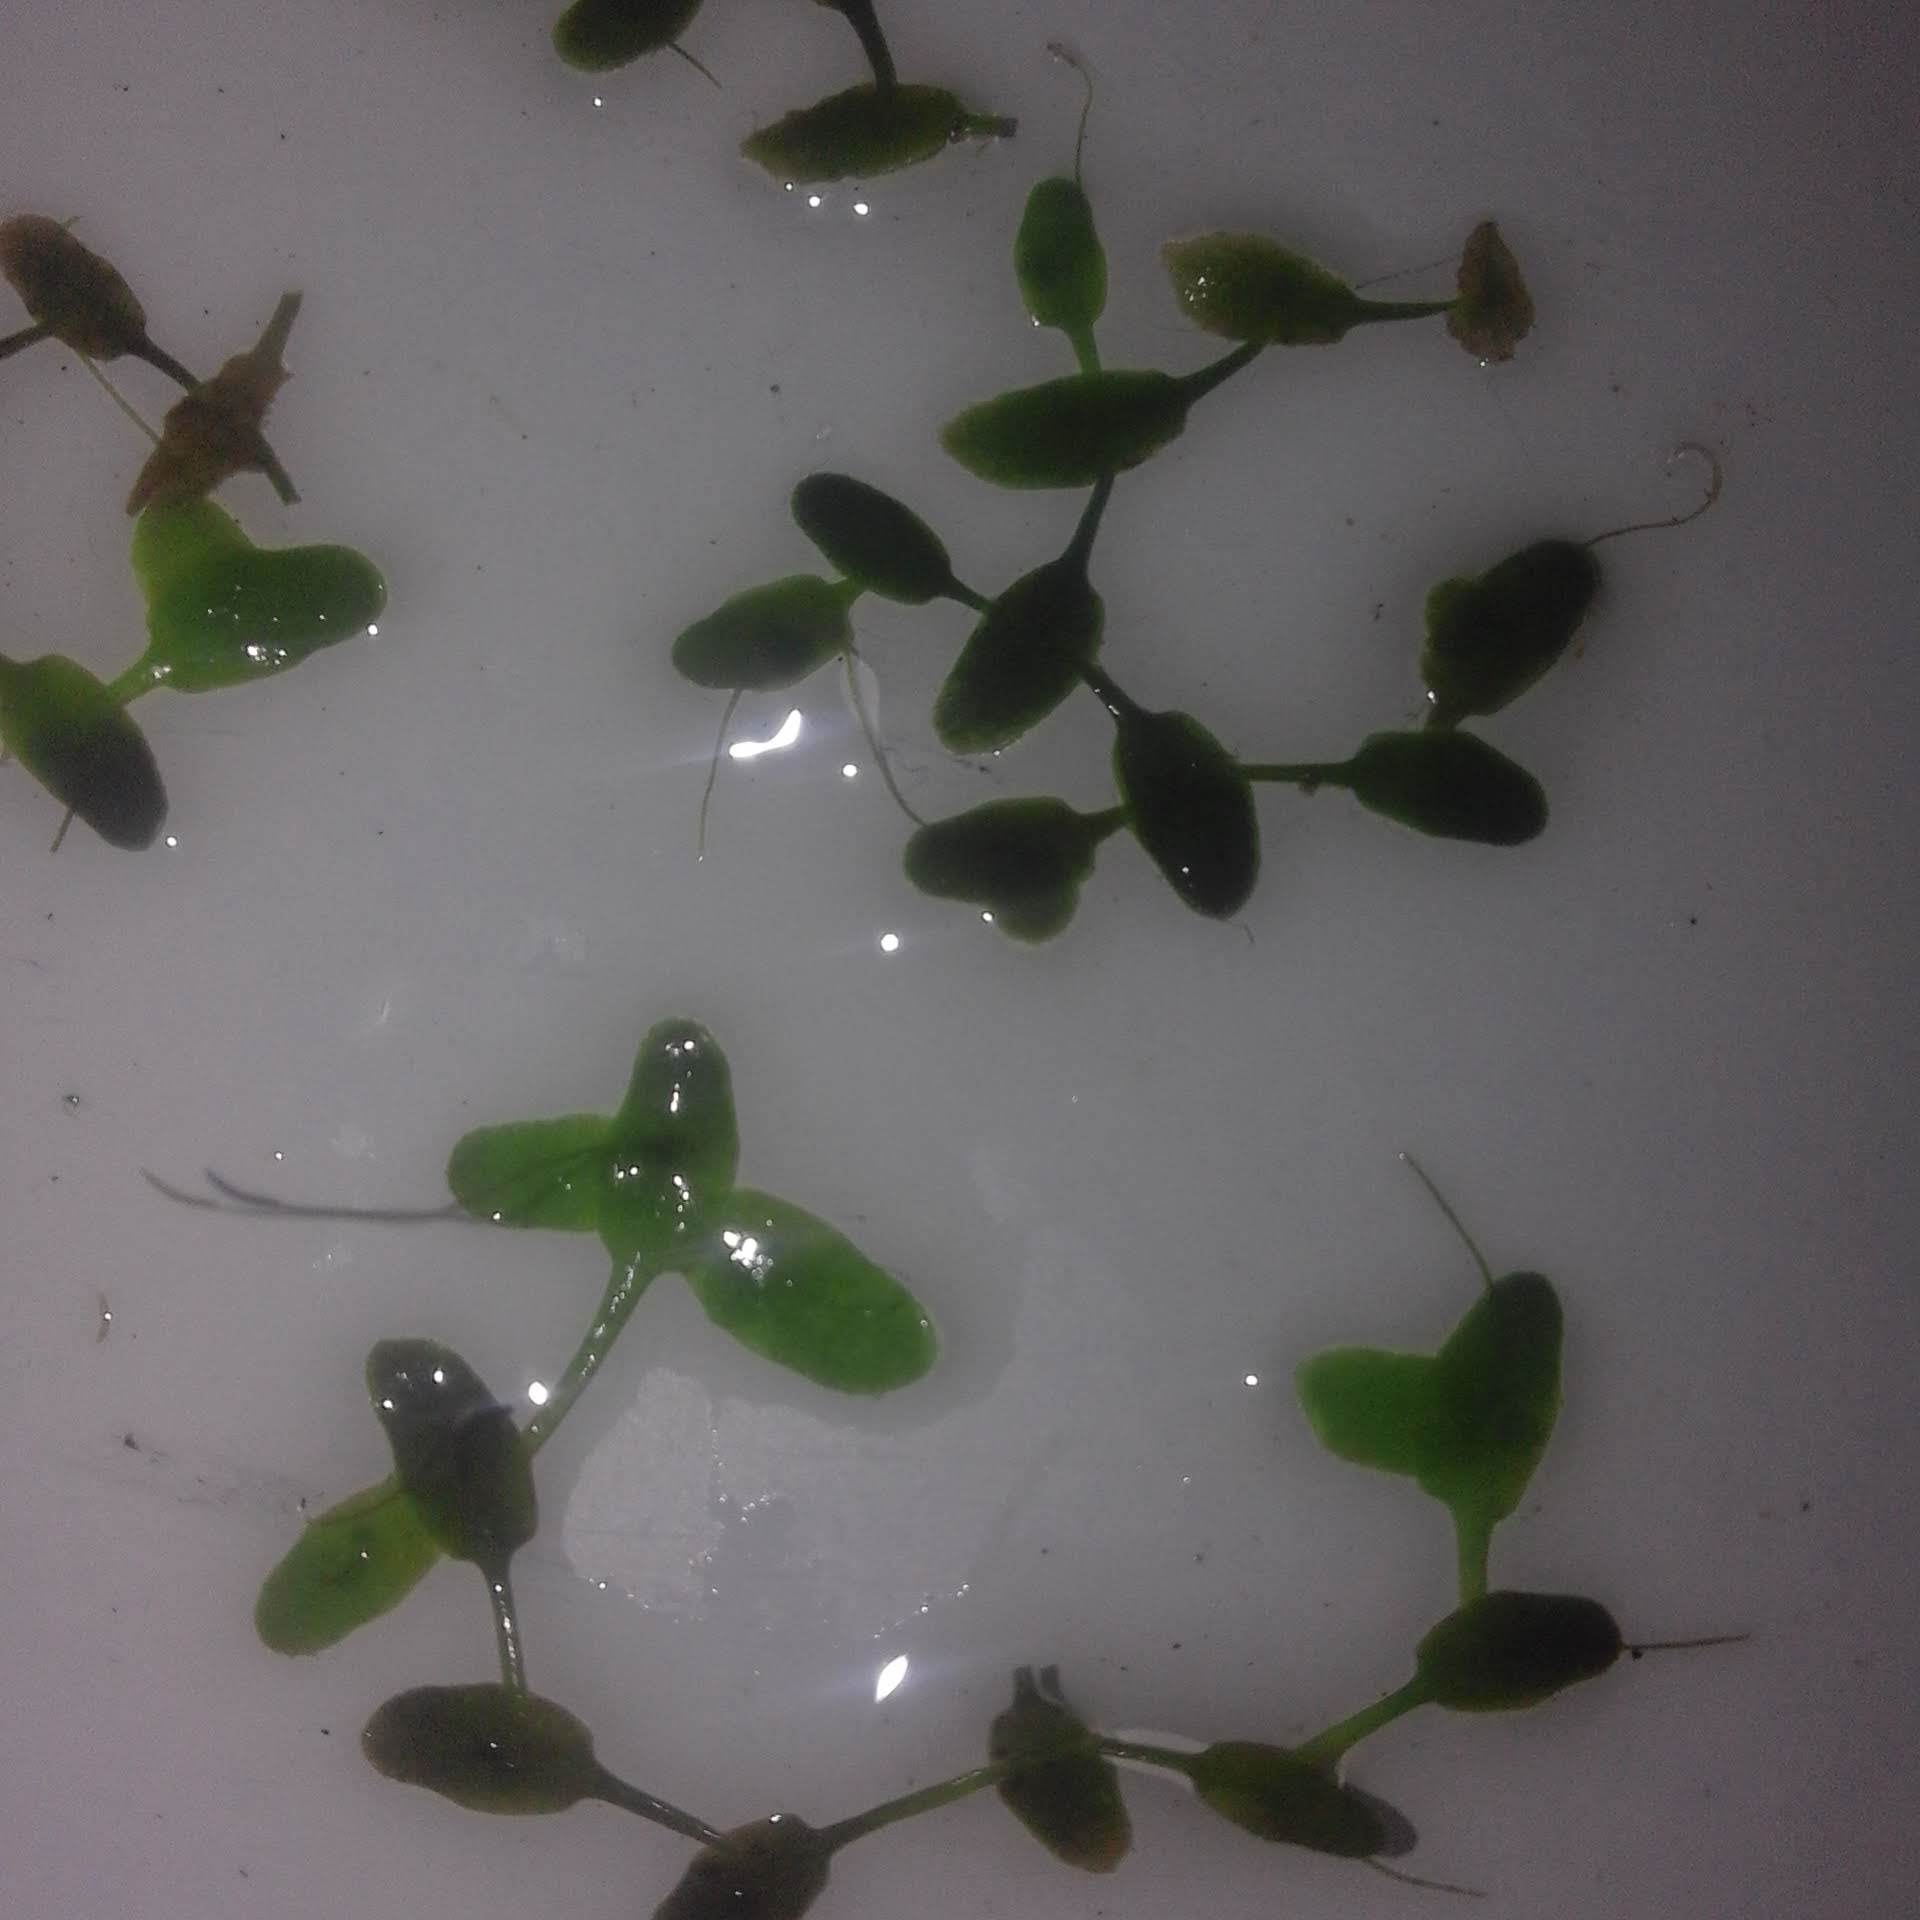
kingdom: Plantae
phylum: Tracheophyta
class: Liliopsida
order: Alismatales
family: Araceae
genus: Lemna
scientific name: Lemna trisulca
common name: Ivy-leaved duckweed
